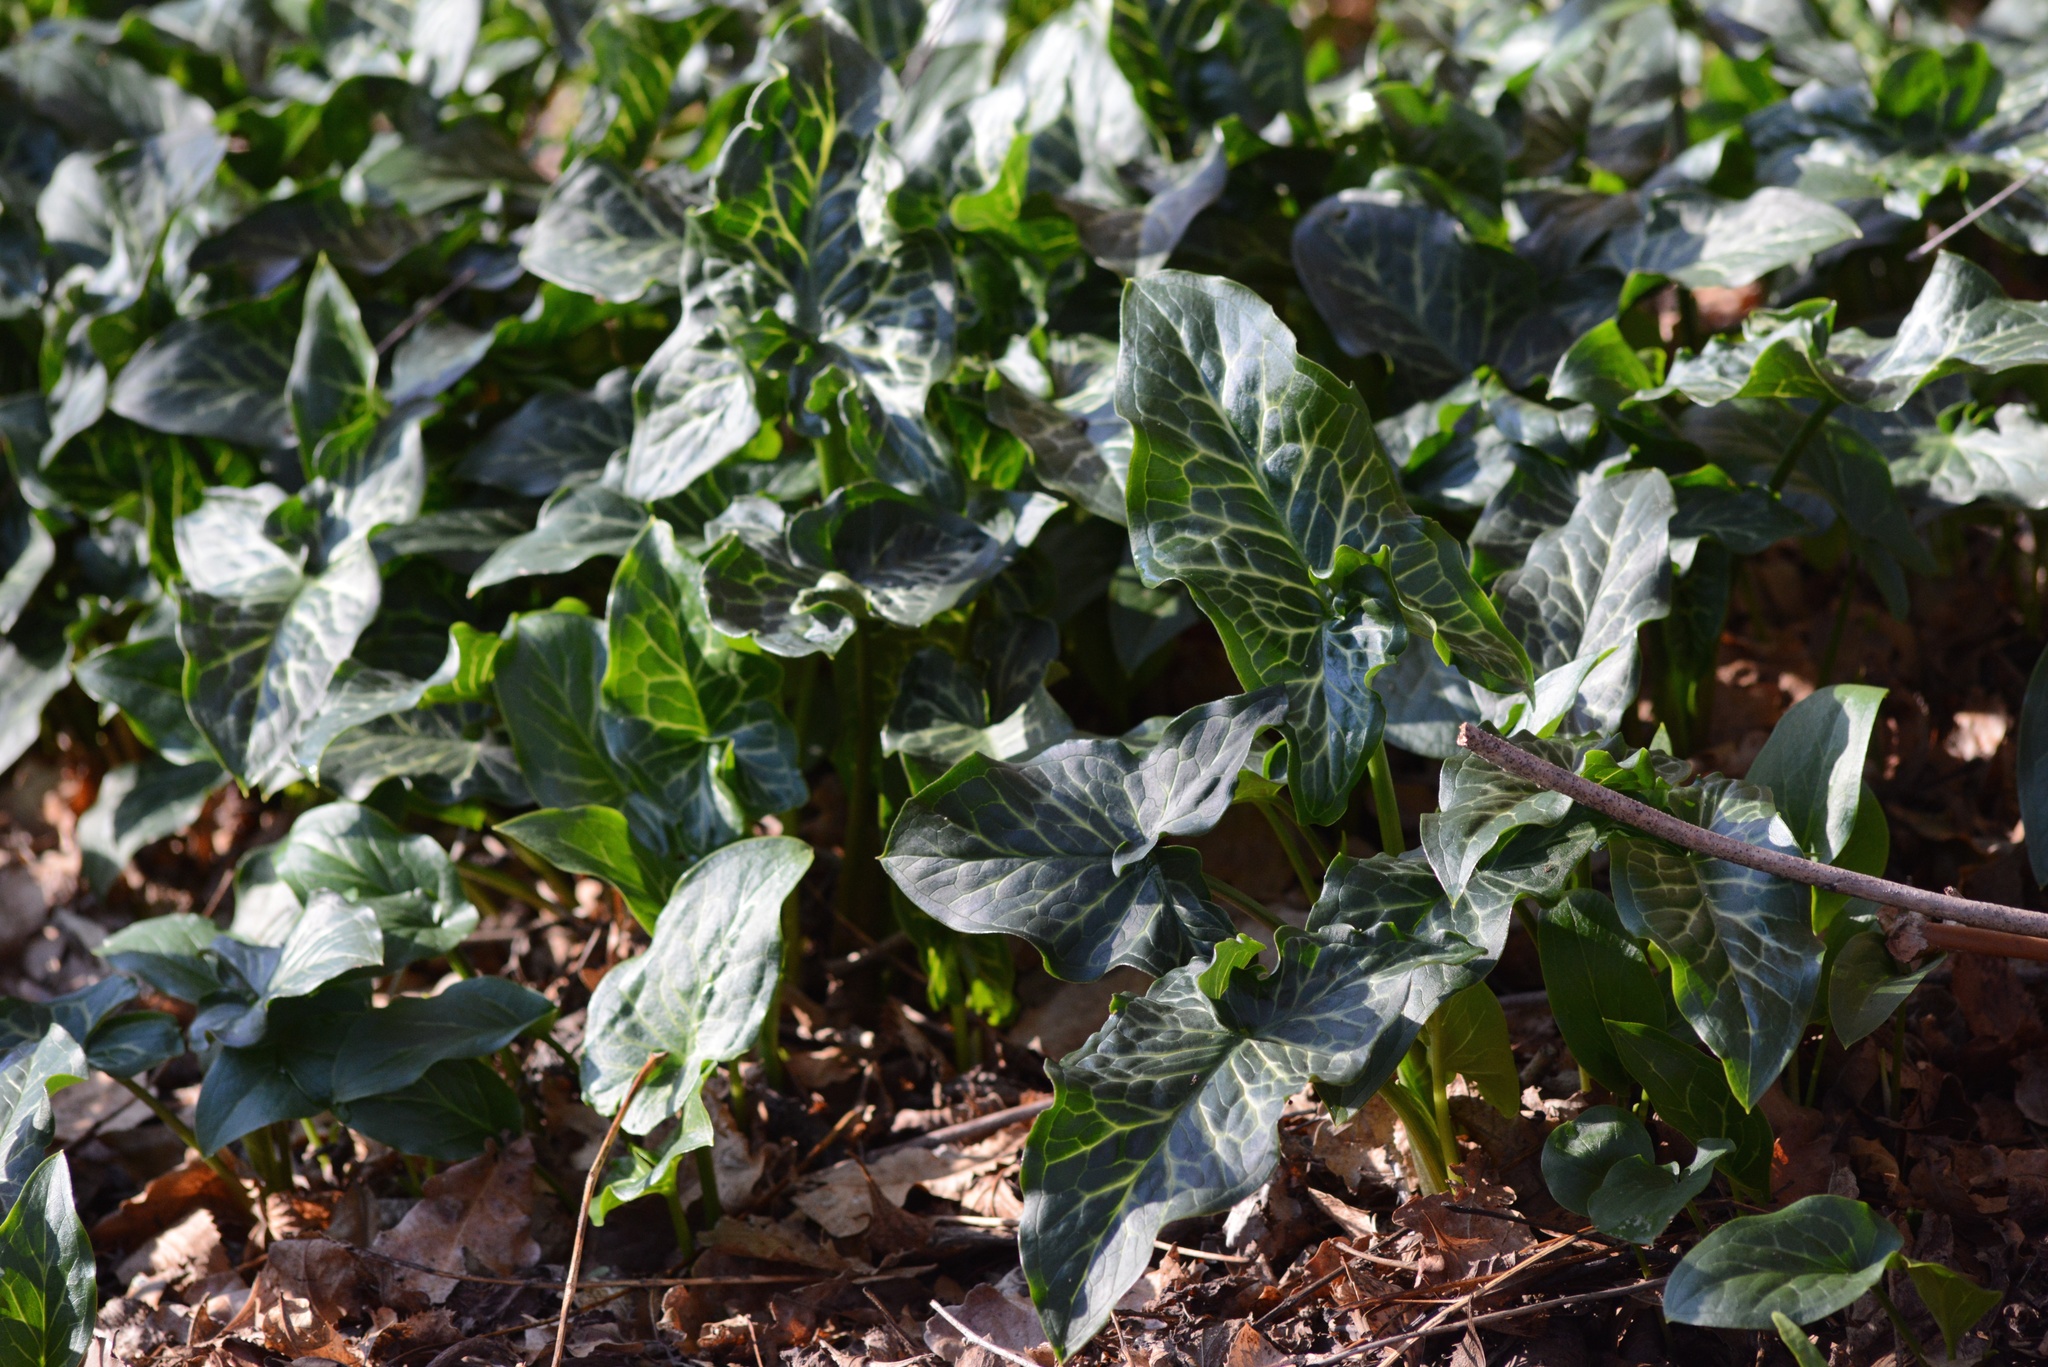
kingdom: Plantae
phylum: Tracheophyta
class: Liliopsida
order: Alismatales
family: Araceae
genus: Arum
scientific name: Arum italicum
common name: Italian lords-and-ladies
